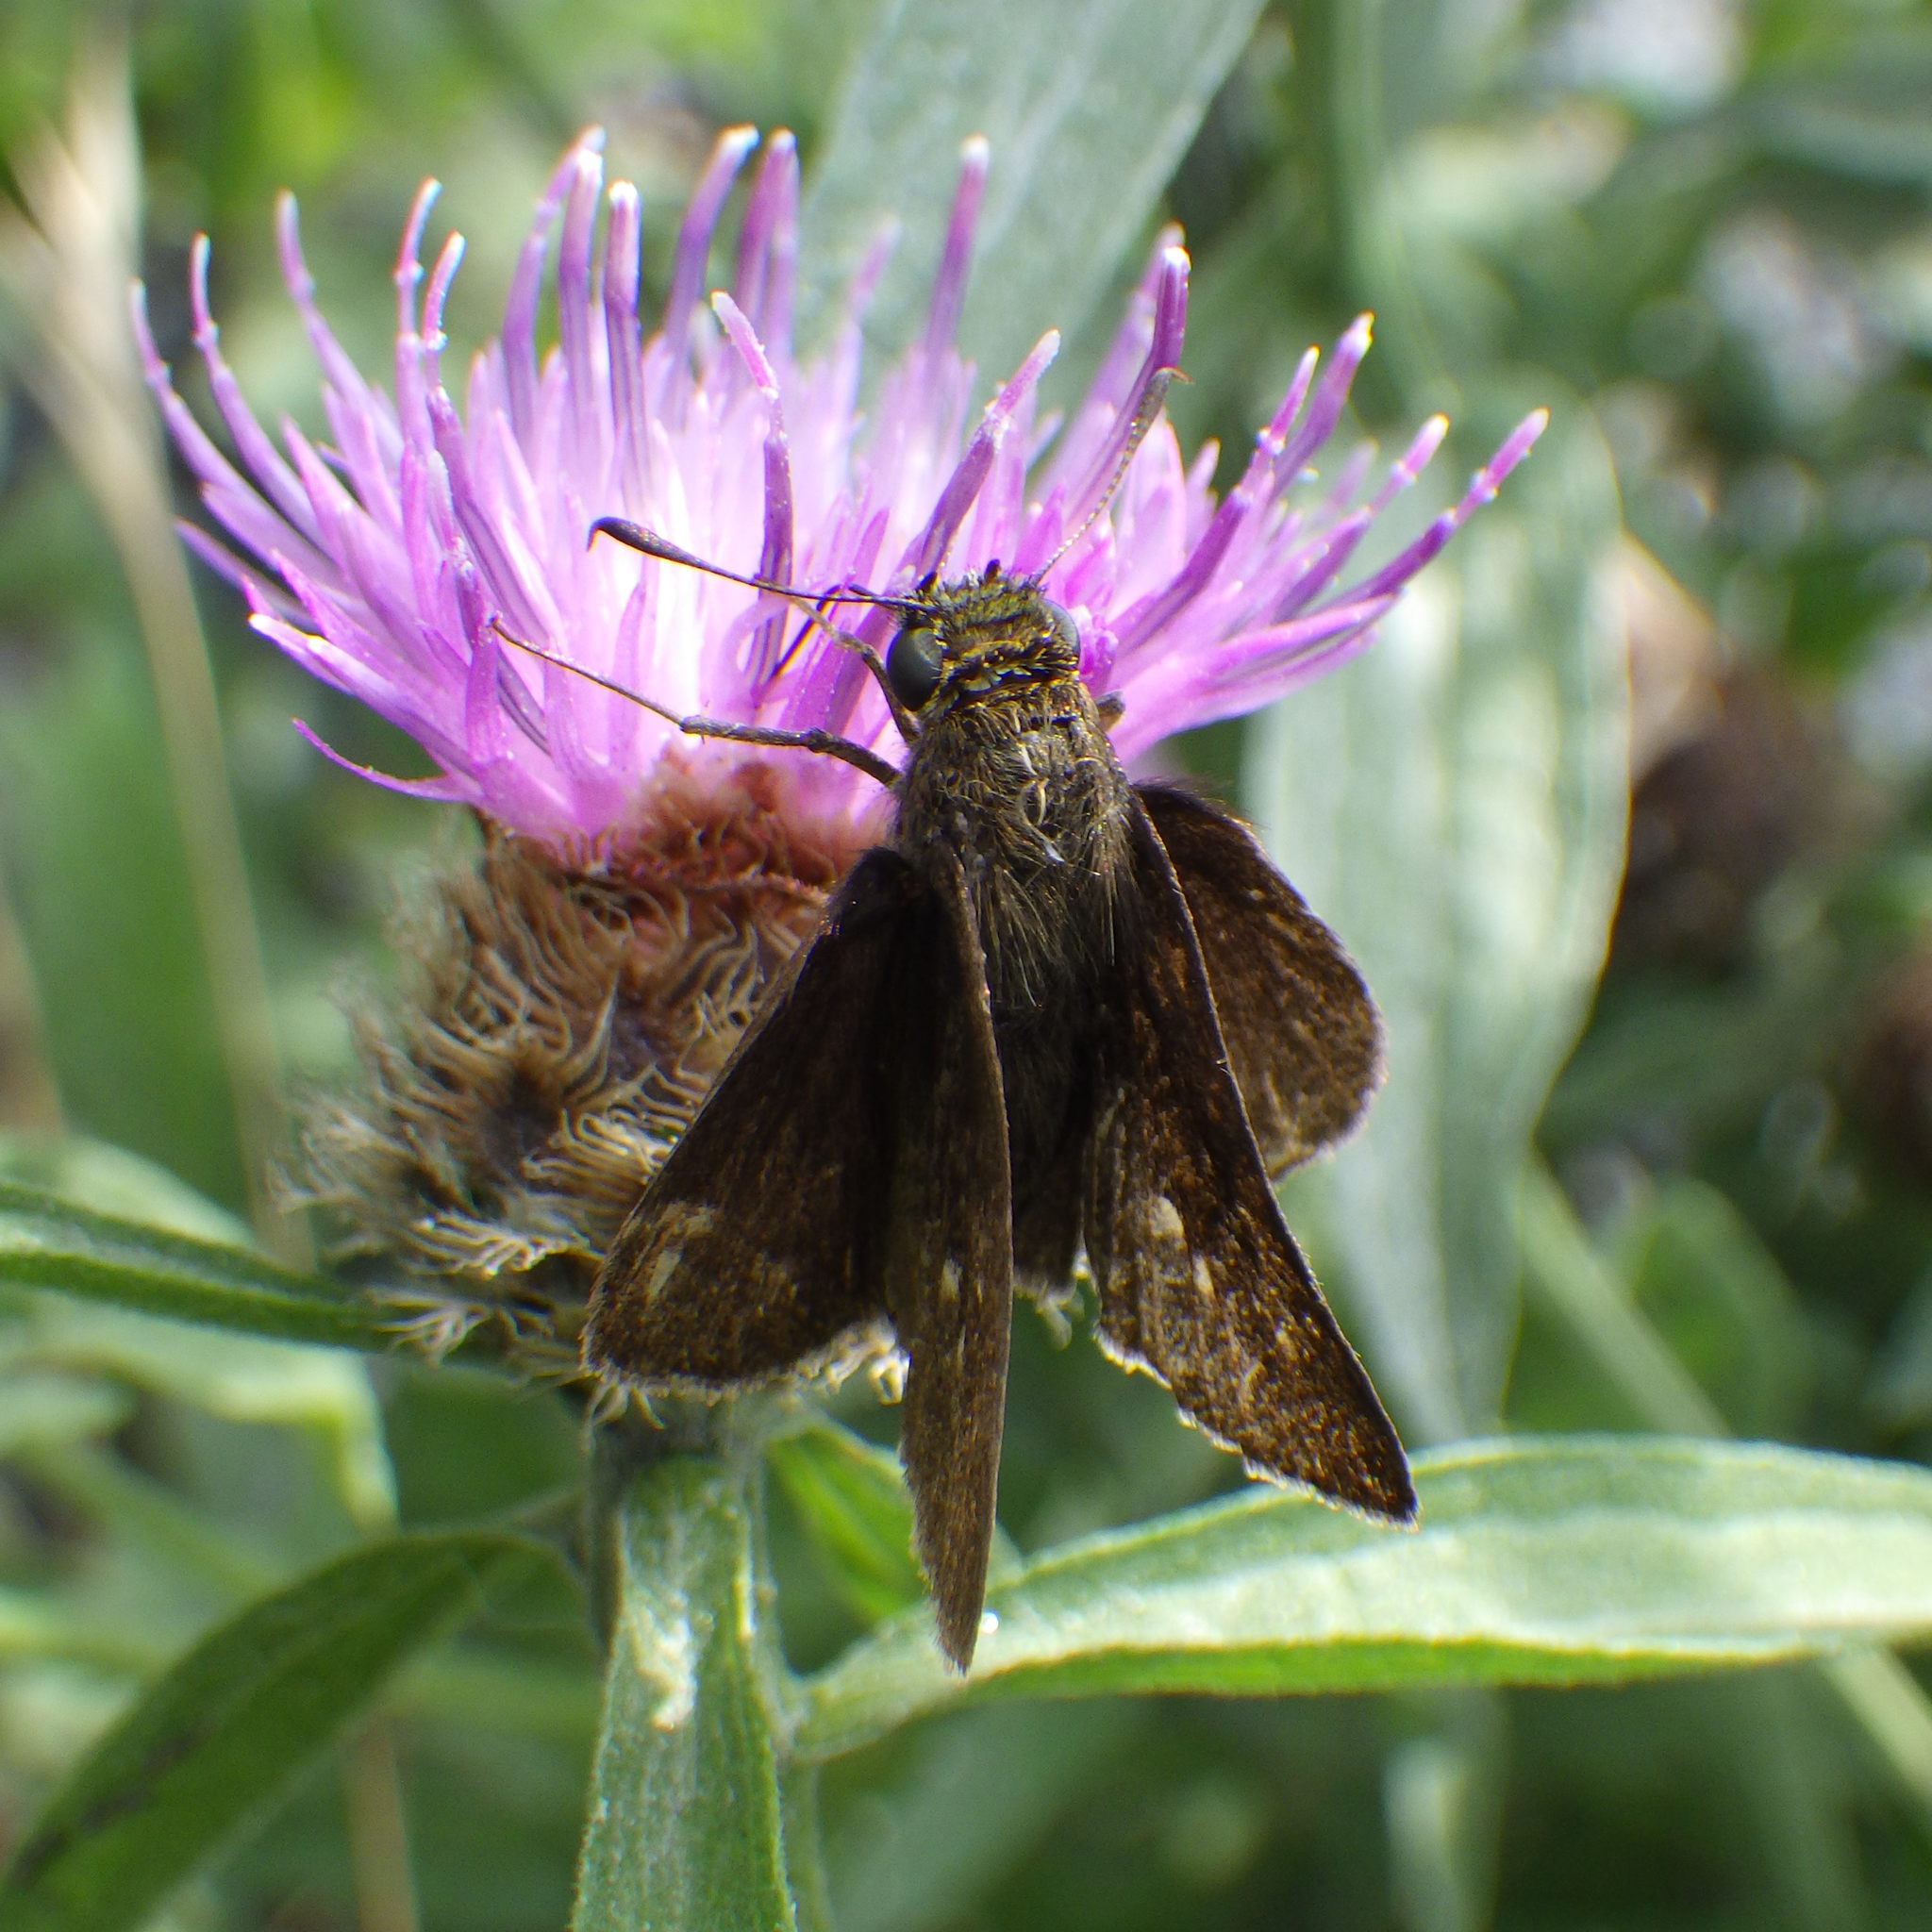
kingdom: Animalia
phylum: Arthropoda
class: Insecta
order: Lepidoptera
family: Hesperiidae
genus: Euphyes
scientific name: Euphyes vestris
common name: Dun skipper
